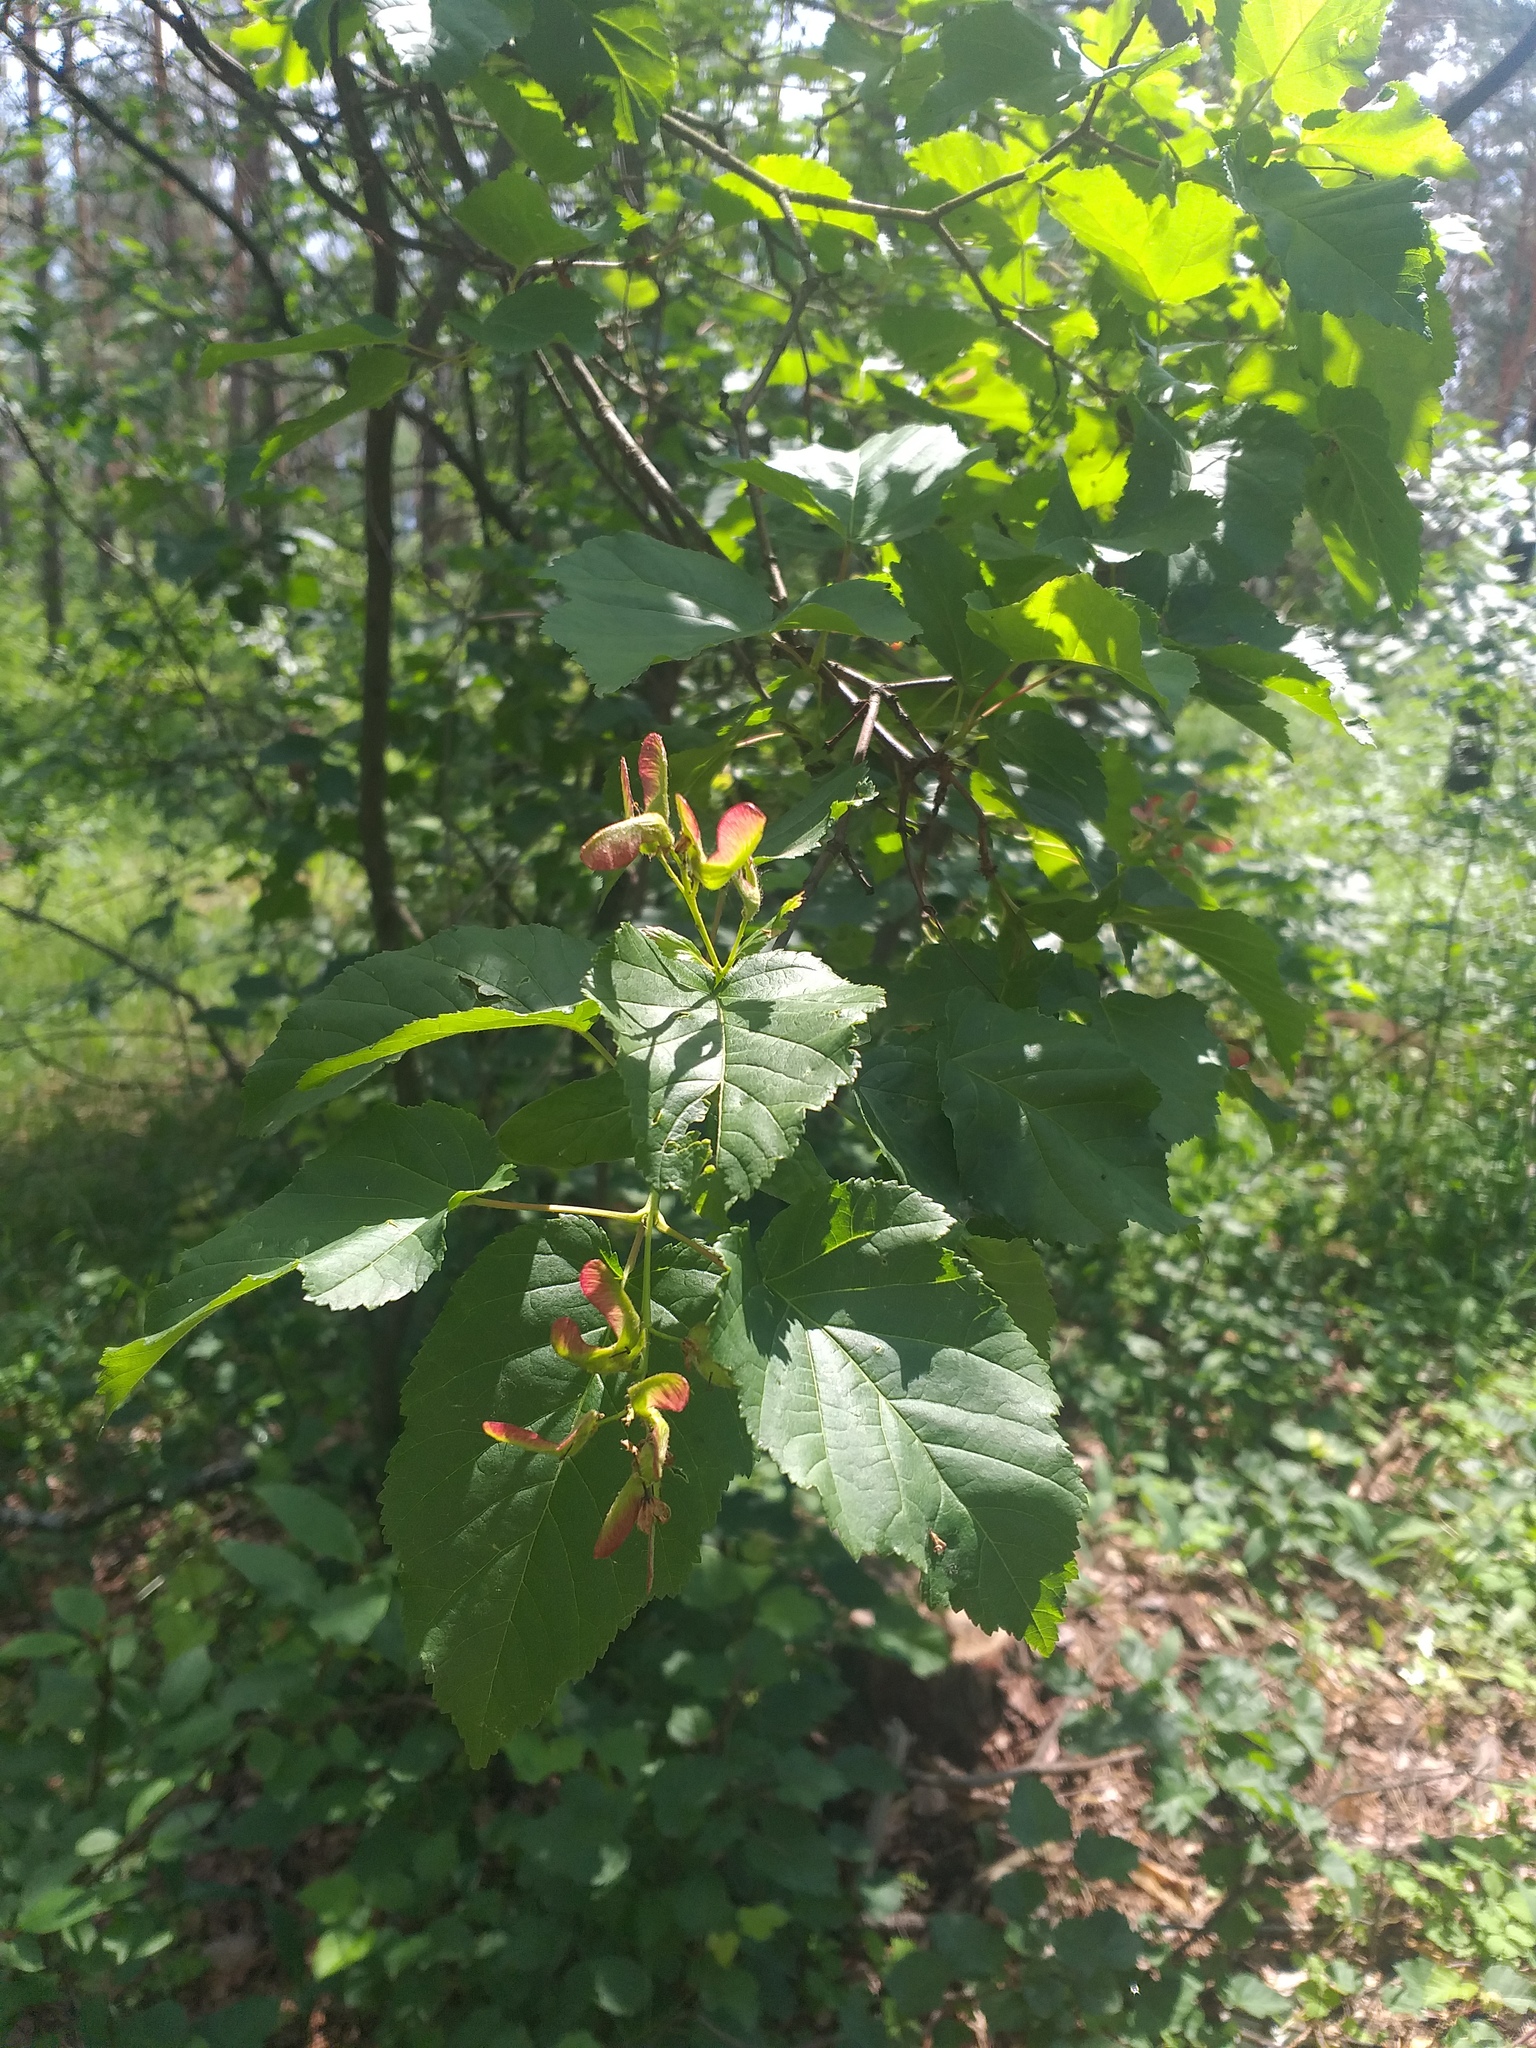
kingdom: Plantae
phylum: Tracheophyta
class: Magnoliopsida
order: Sapindales
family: Sapindaceae
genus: Acer
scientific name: Acer tataricum
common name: Tartar maple
